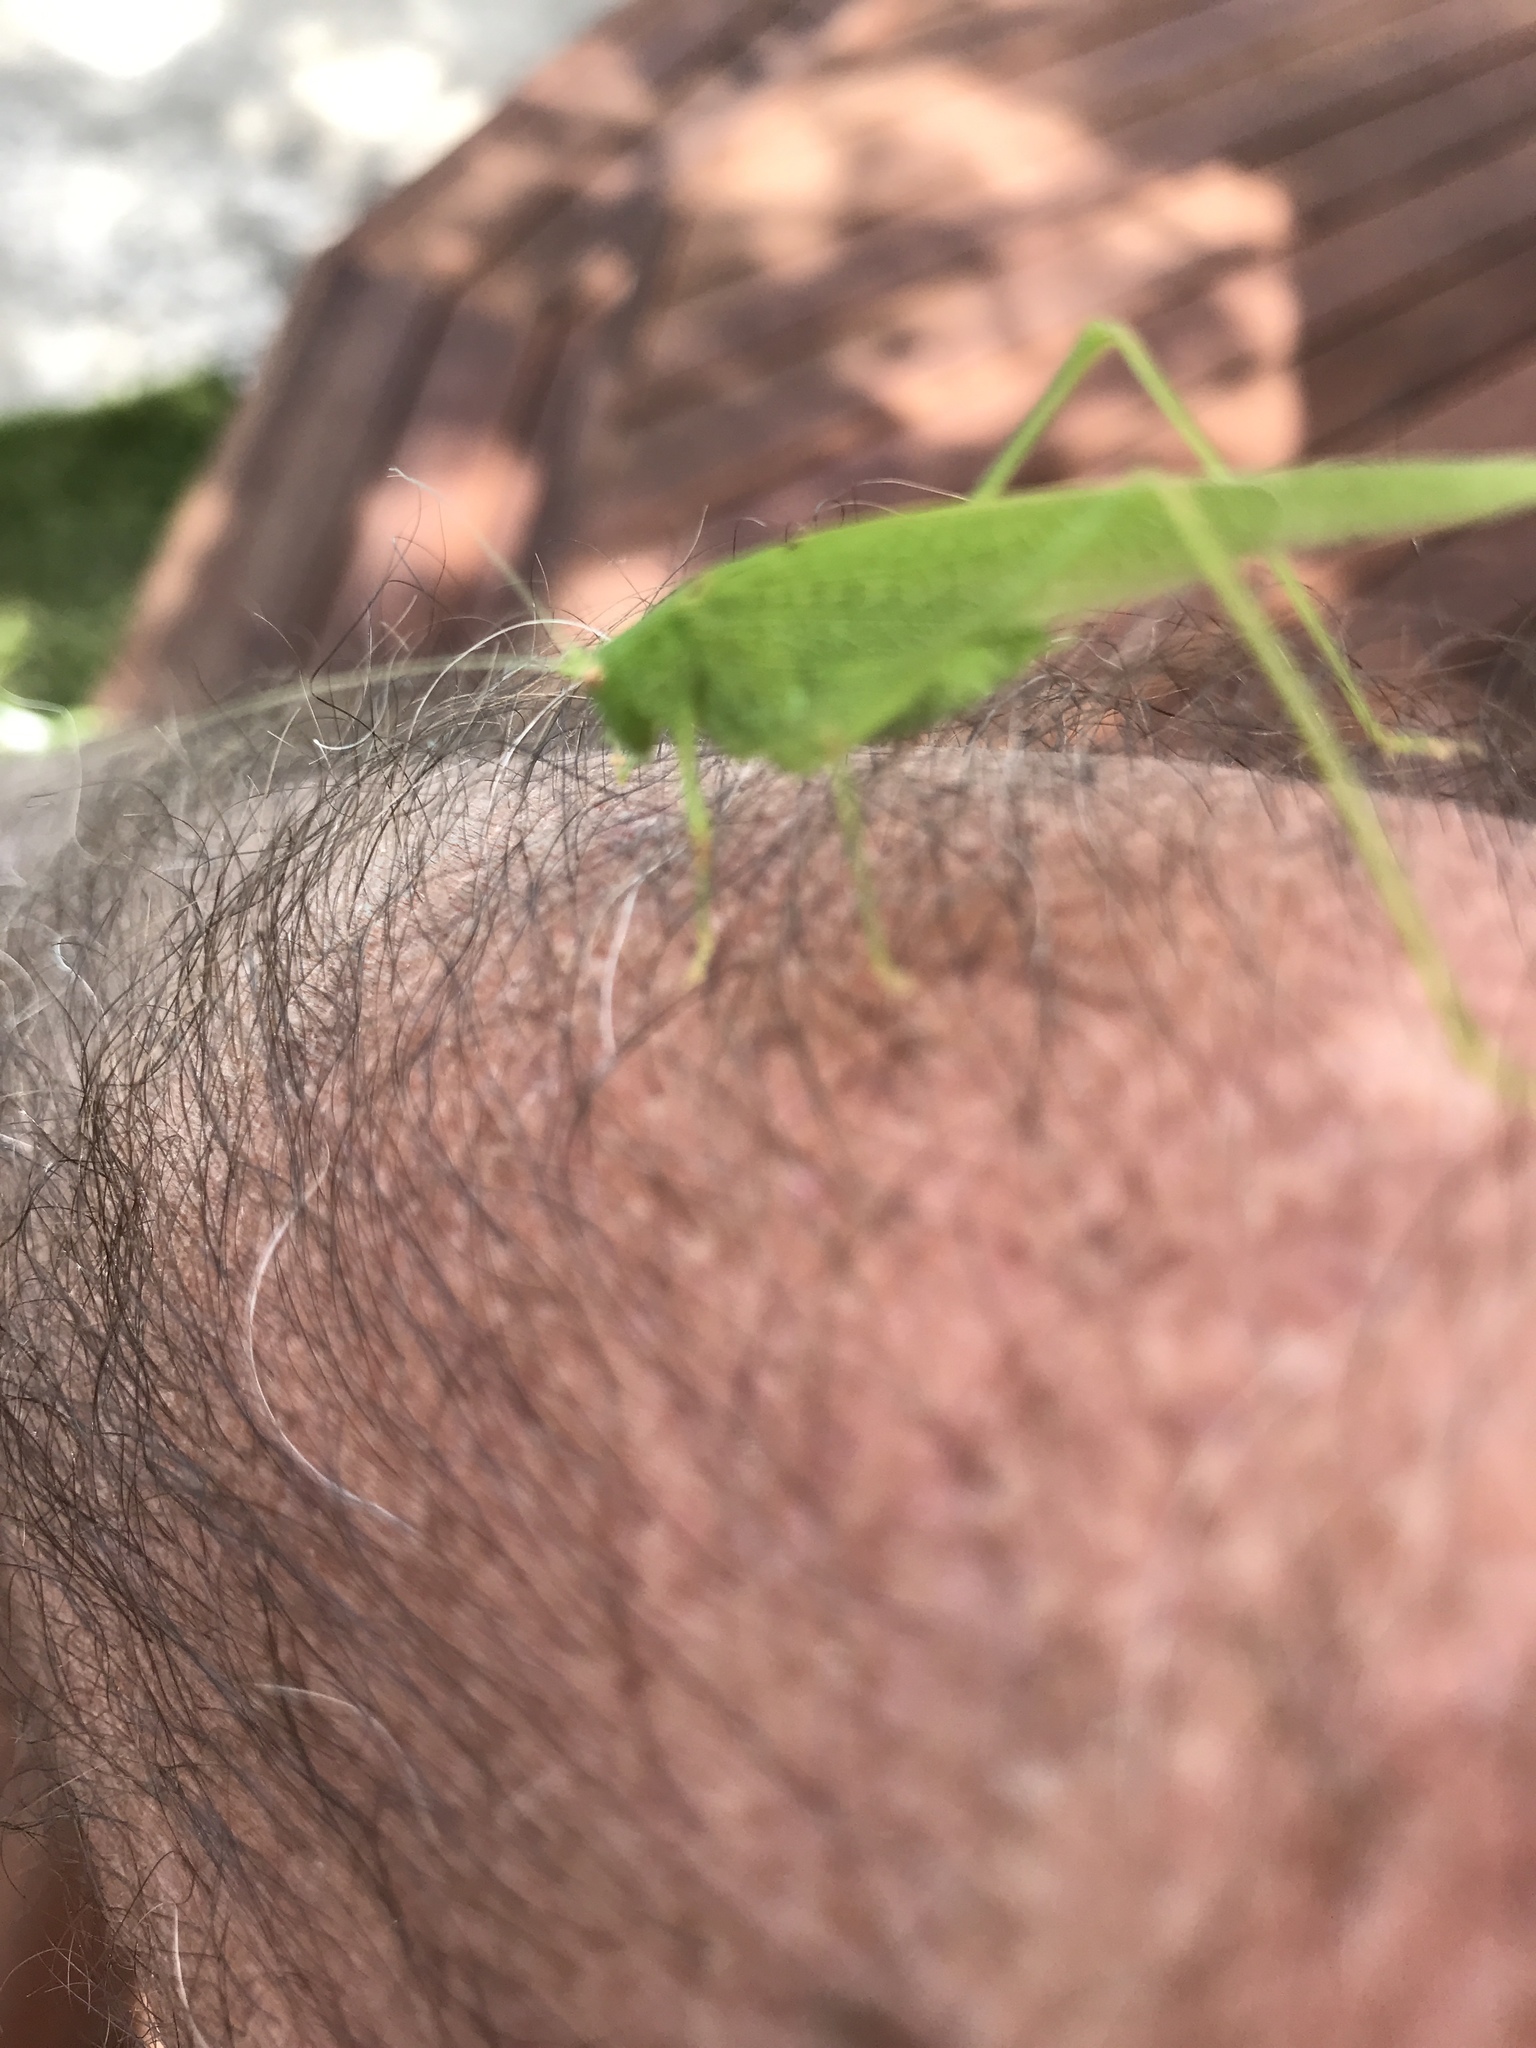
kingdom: Animalia
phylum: Arthropoda
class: Insecta
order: Orthoptera
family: Tettigoniidae
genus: Phaneroptera
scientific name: Phaneroptera nana
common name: Southern sickle bush-cricket
